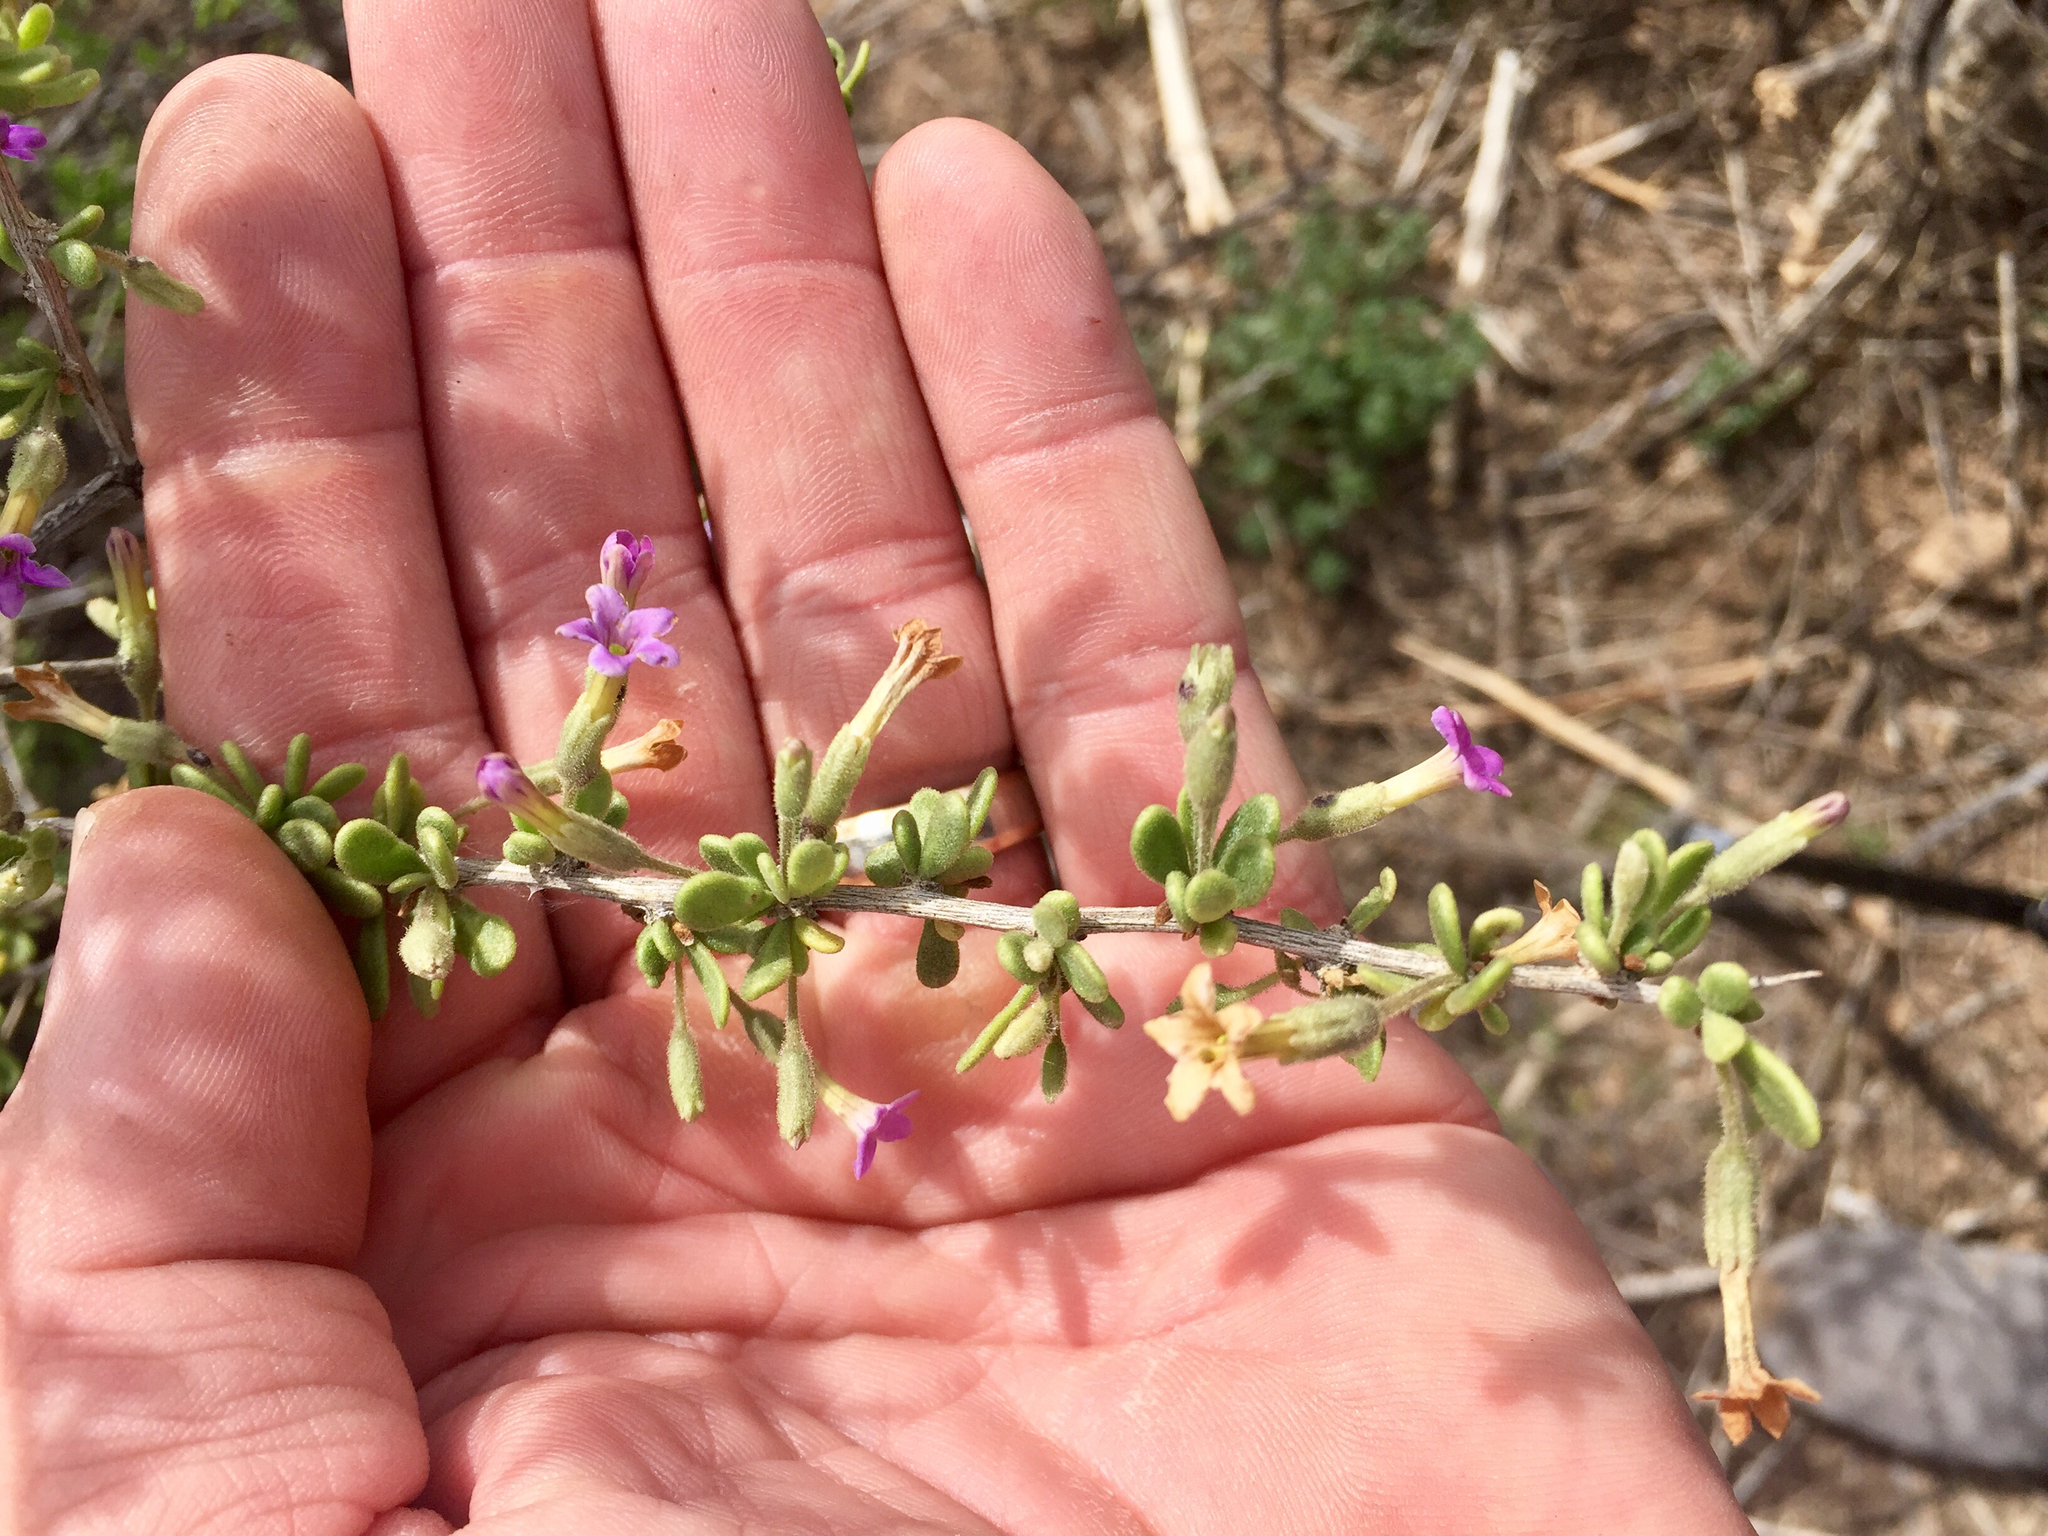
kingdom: Plantae
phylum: Tracheophyta
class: Magnoliopsida
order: Solanales
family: Solanaceae
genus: Lycium
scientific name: Lycium fremontii
